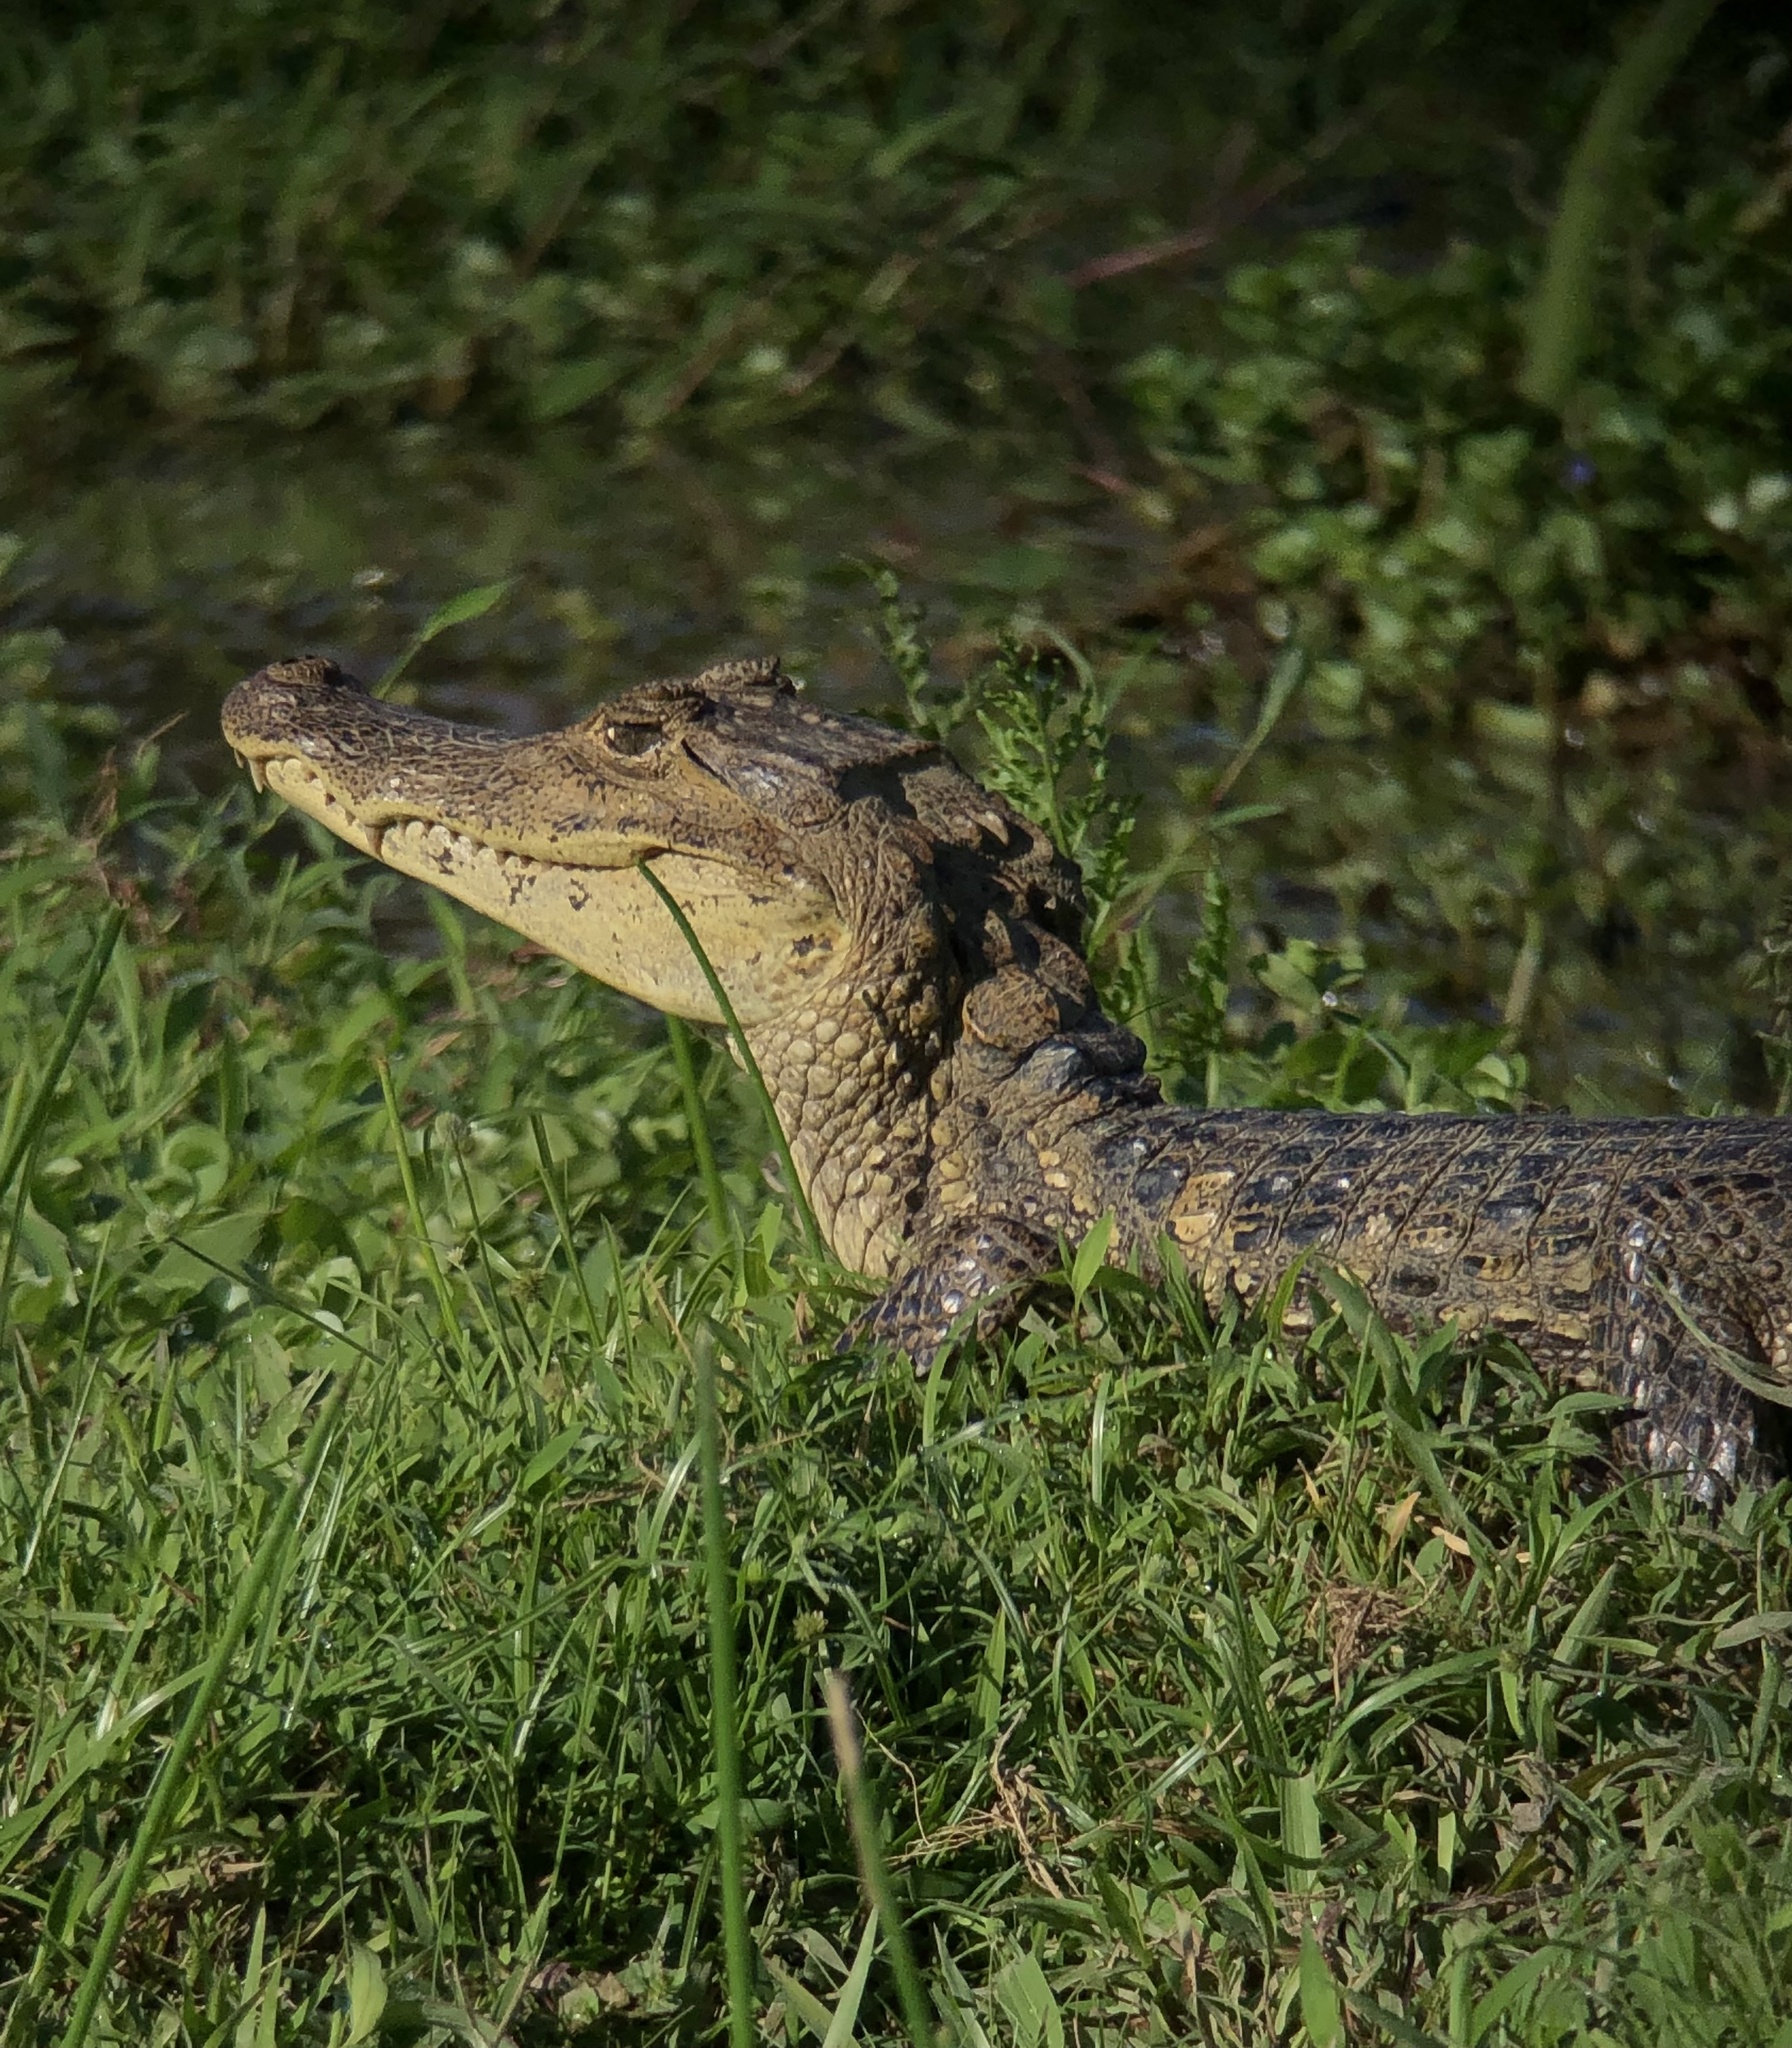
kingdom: Animalia
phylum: Chordata
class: Crocodylia
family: Alligatoridae
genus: Caiman
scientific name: Caiman crocodilus
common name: Common caiman
